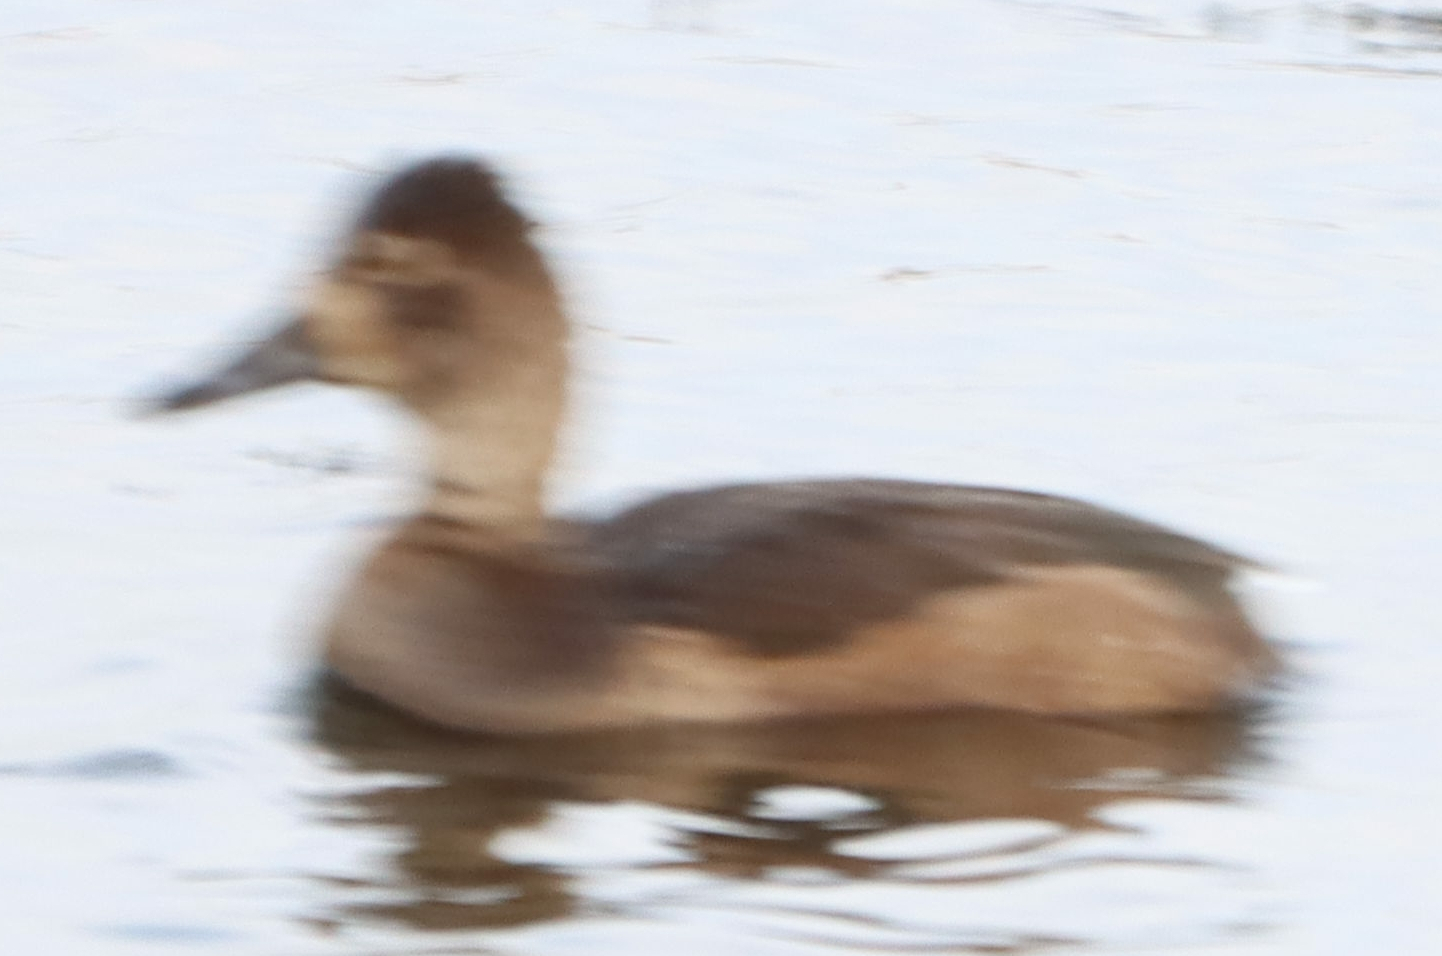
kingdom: Animalia
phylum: Chordata
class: Aves
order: Anseriformes
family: Anatidae
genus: Aythya
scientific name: Aythya collaris
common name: Ring-necked duck
